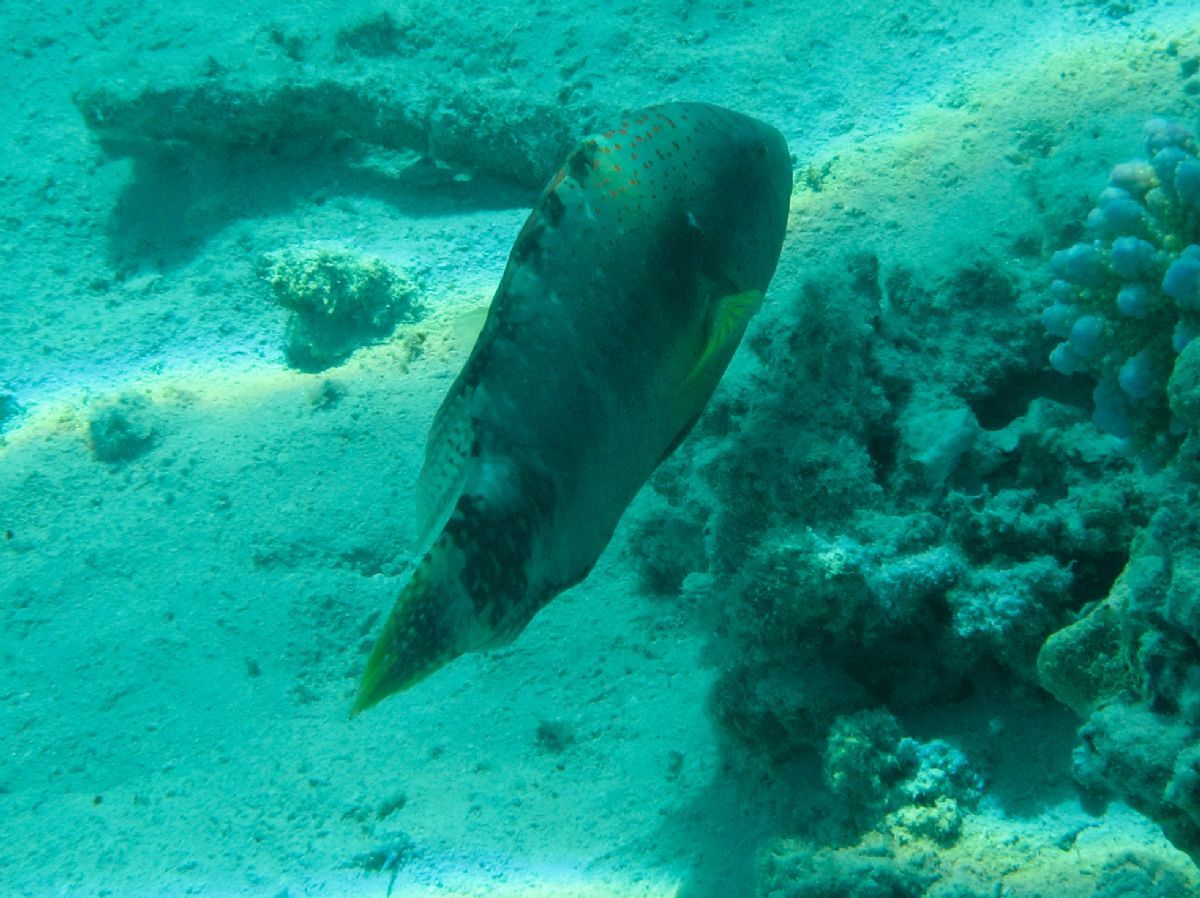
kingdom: Animalia
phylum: Chordata
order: Perciformes
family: Labridae
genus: Cheilinus
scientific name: Cheilinus abudjubbe
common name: Abudjubbe’s splendor wrasse
